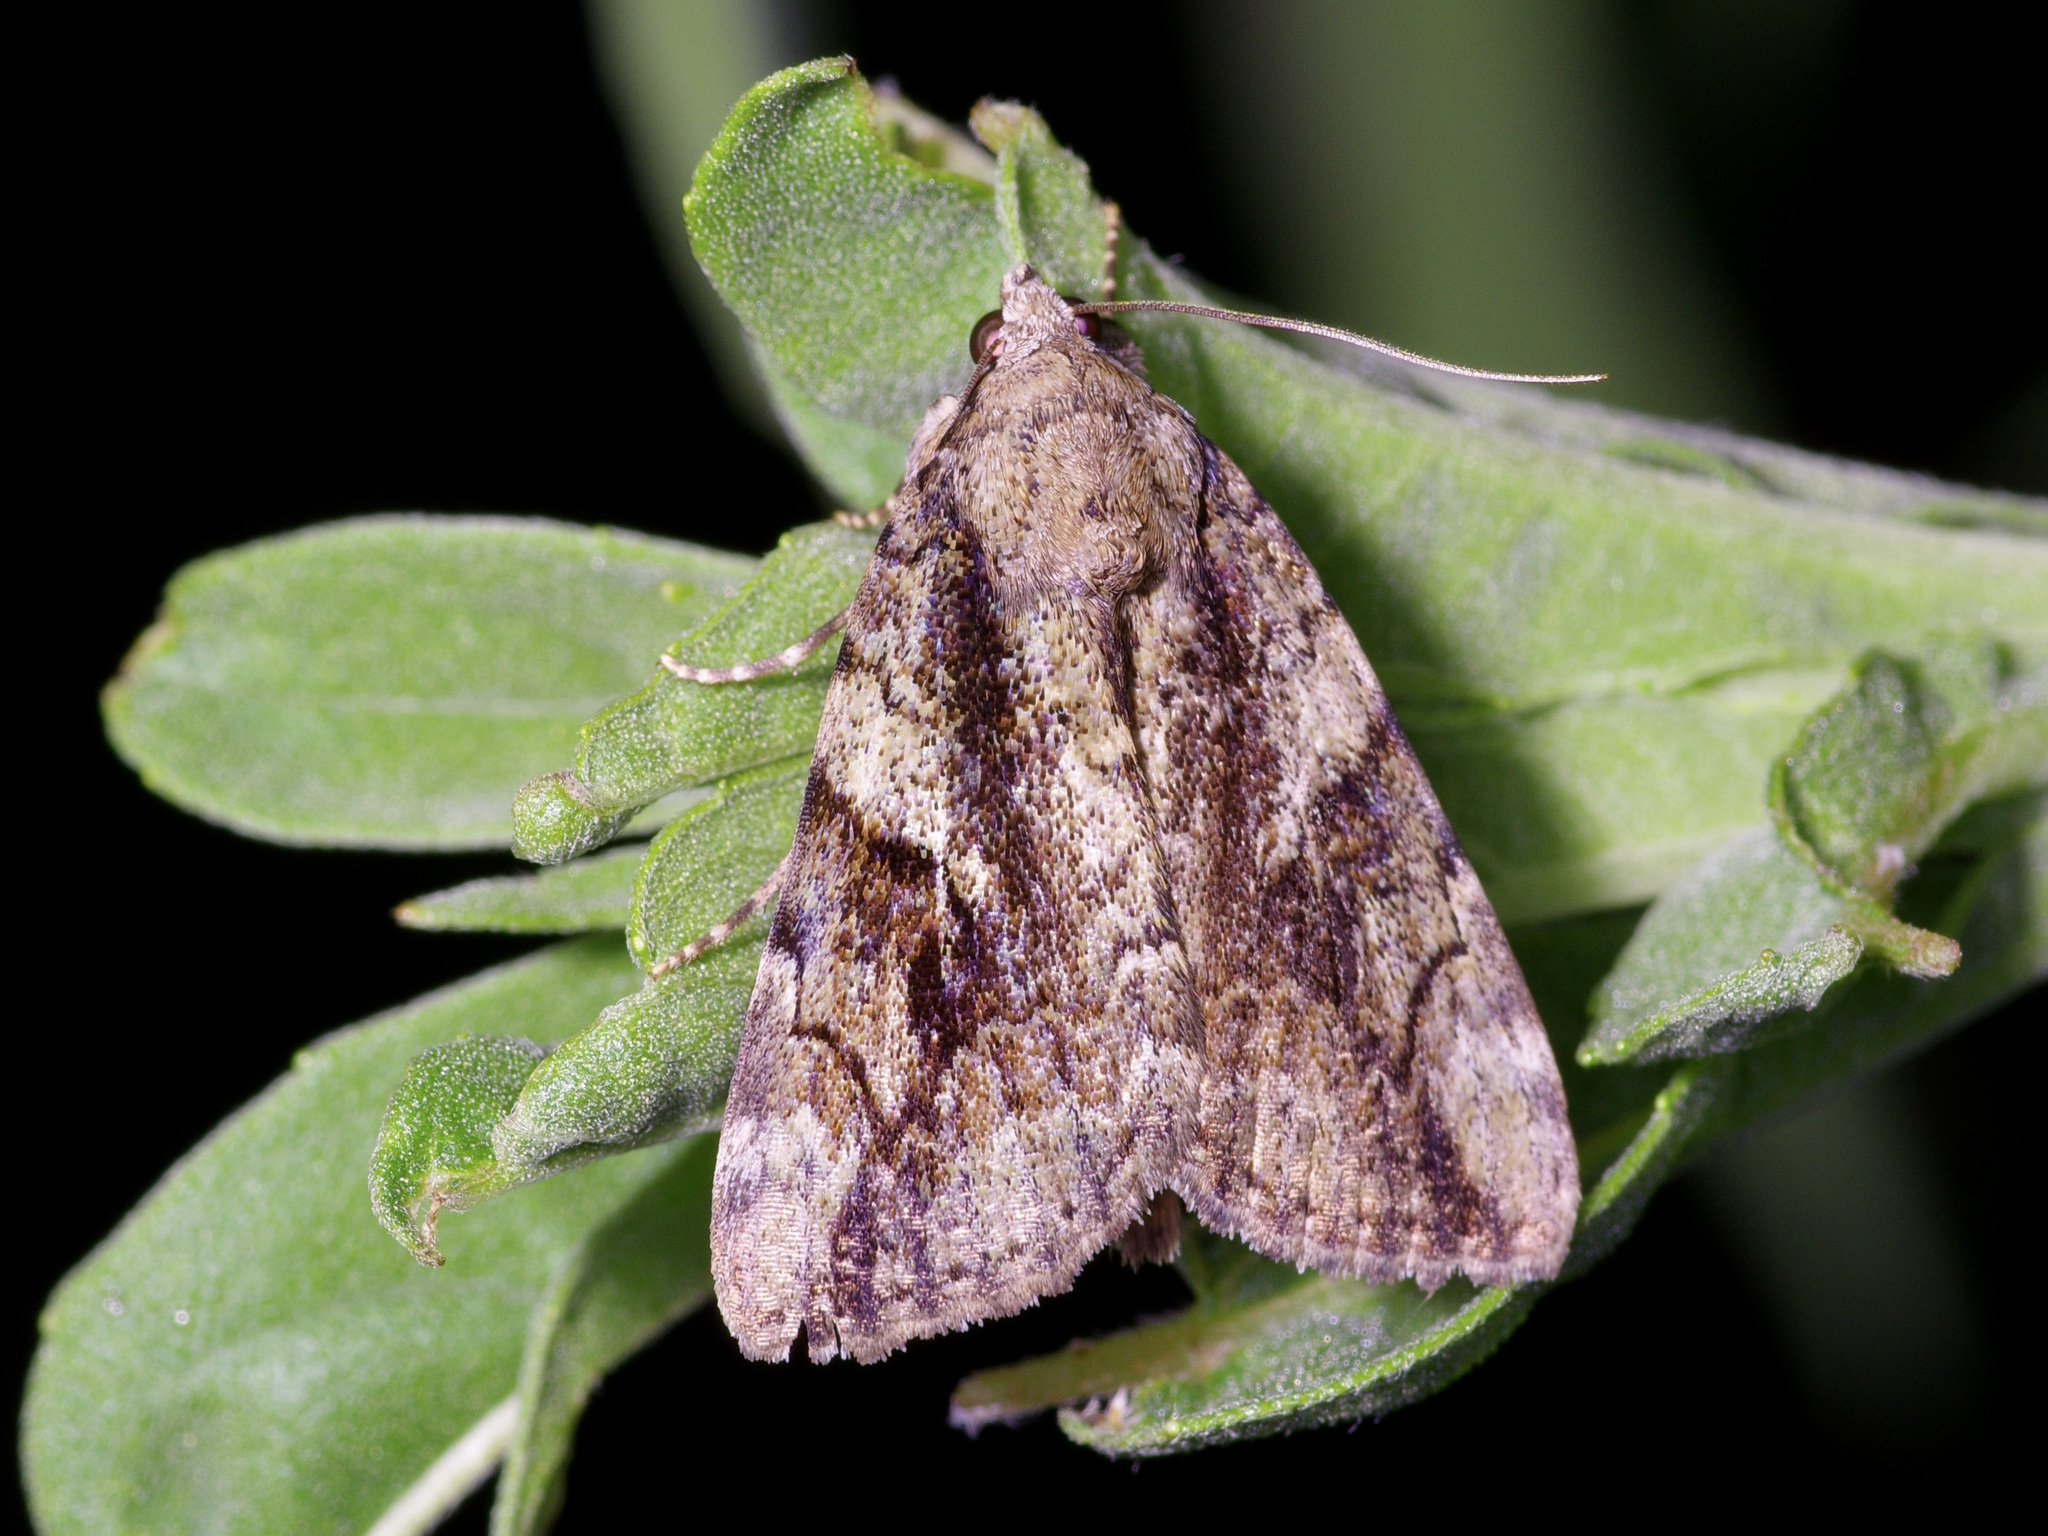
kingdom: Animalia
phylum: Arthropoda
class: Insecta
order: Lepidoptera
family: Erebidae
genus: Catocala
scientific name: Catocala micronympha
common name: Little nymph underwing
